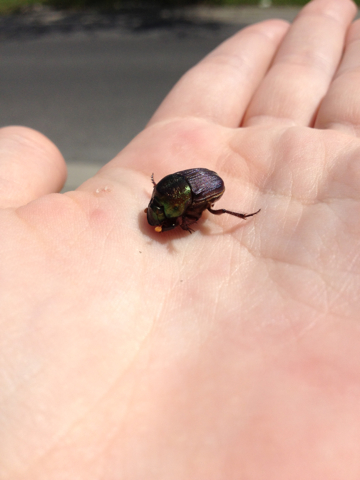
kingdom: Animalia
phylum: Arthropoda
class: Insecta
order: Coleoptera
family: Scarabaeidae
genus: Phanaeus
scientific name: Phanaeus vindex
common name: Rainbow scarab
